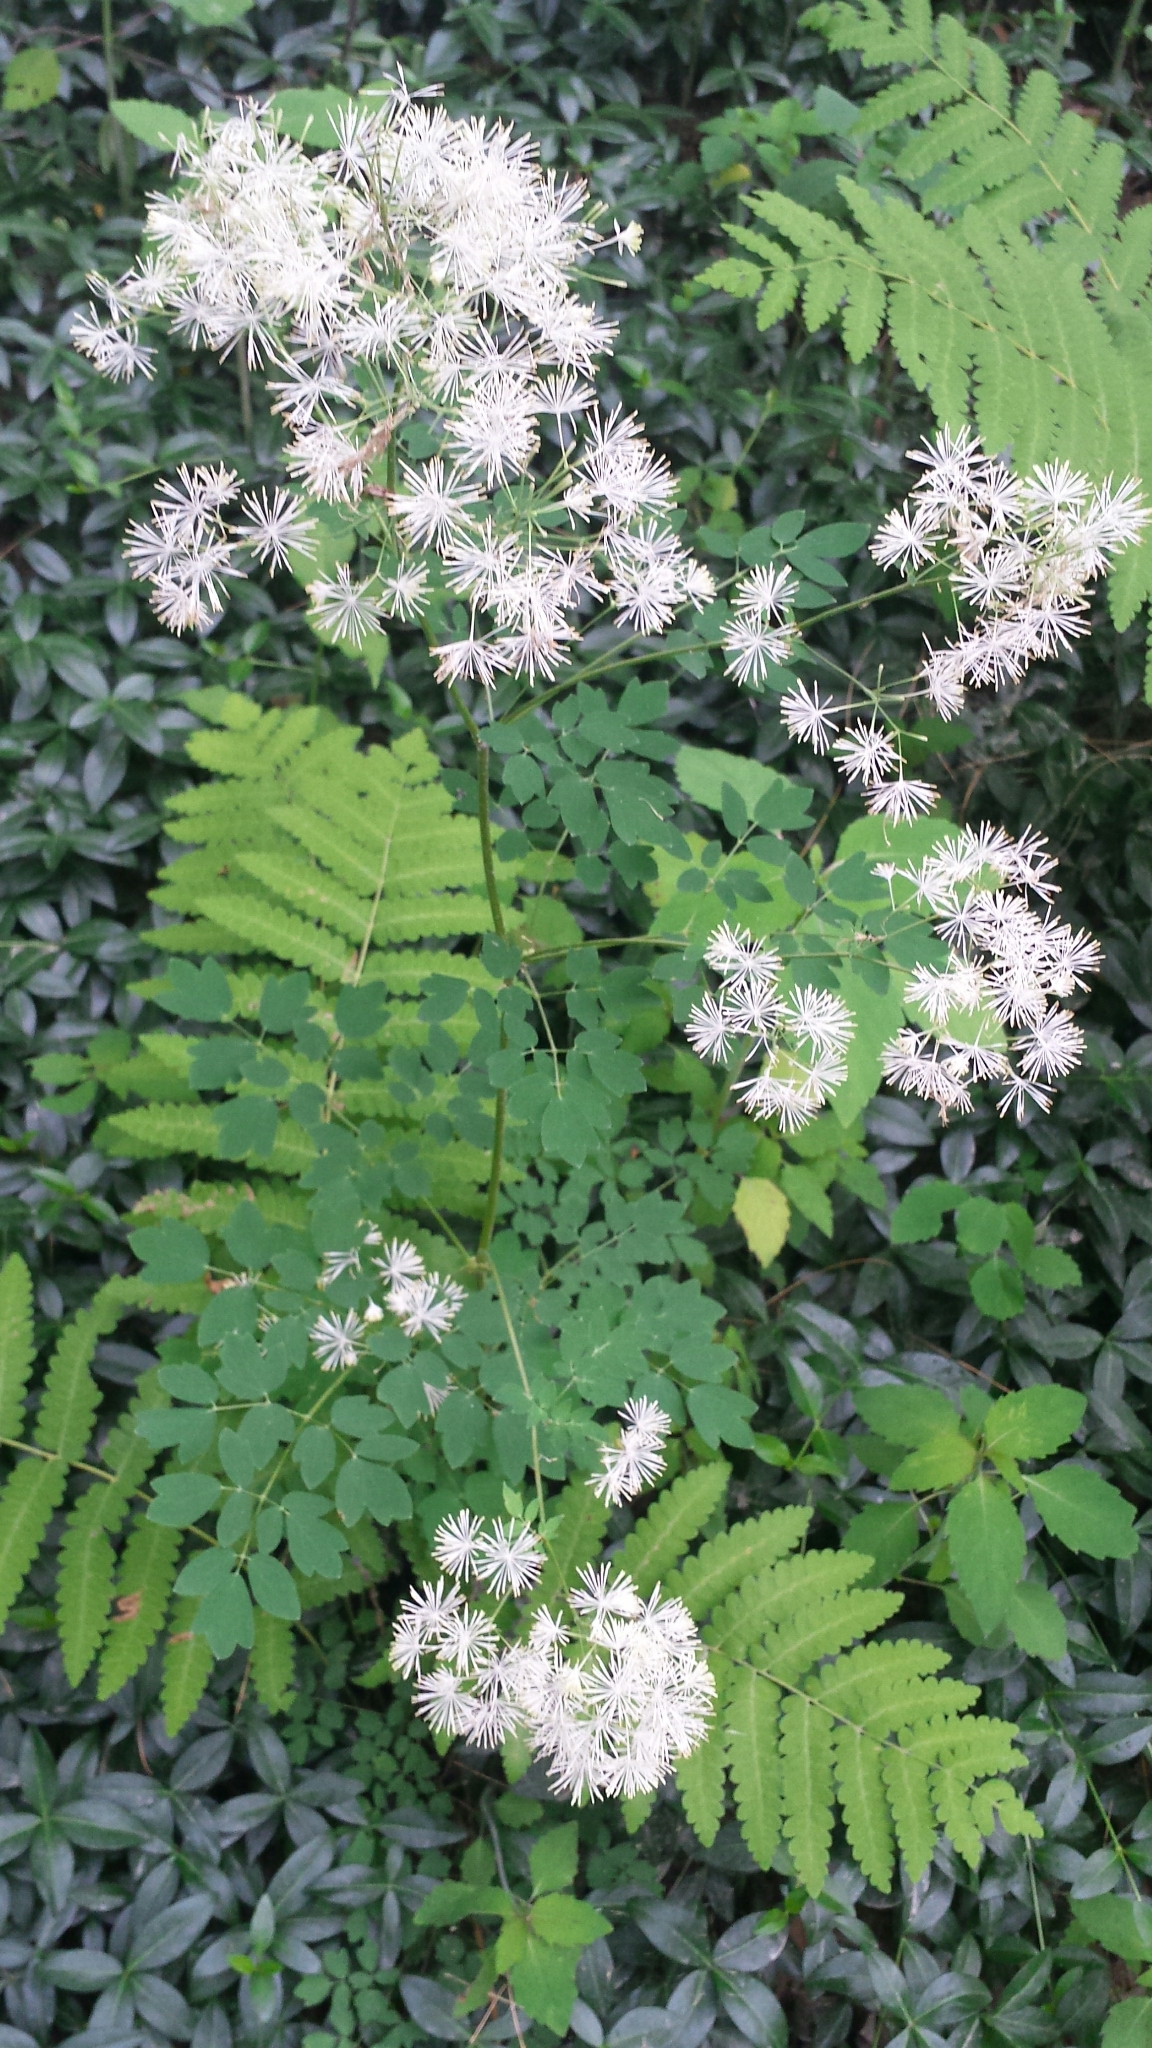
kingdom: Plantae
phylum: Tracheophyta
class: Magnoliopsida
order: Ranunculales
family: Ranunculaceae
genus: Thalictrum
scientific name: Thalictrum pubescens
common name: King-of-the-meadow
